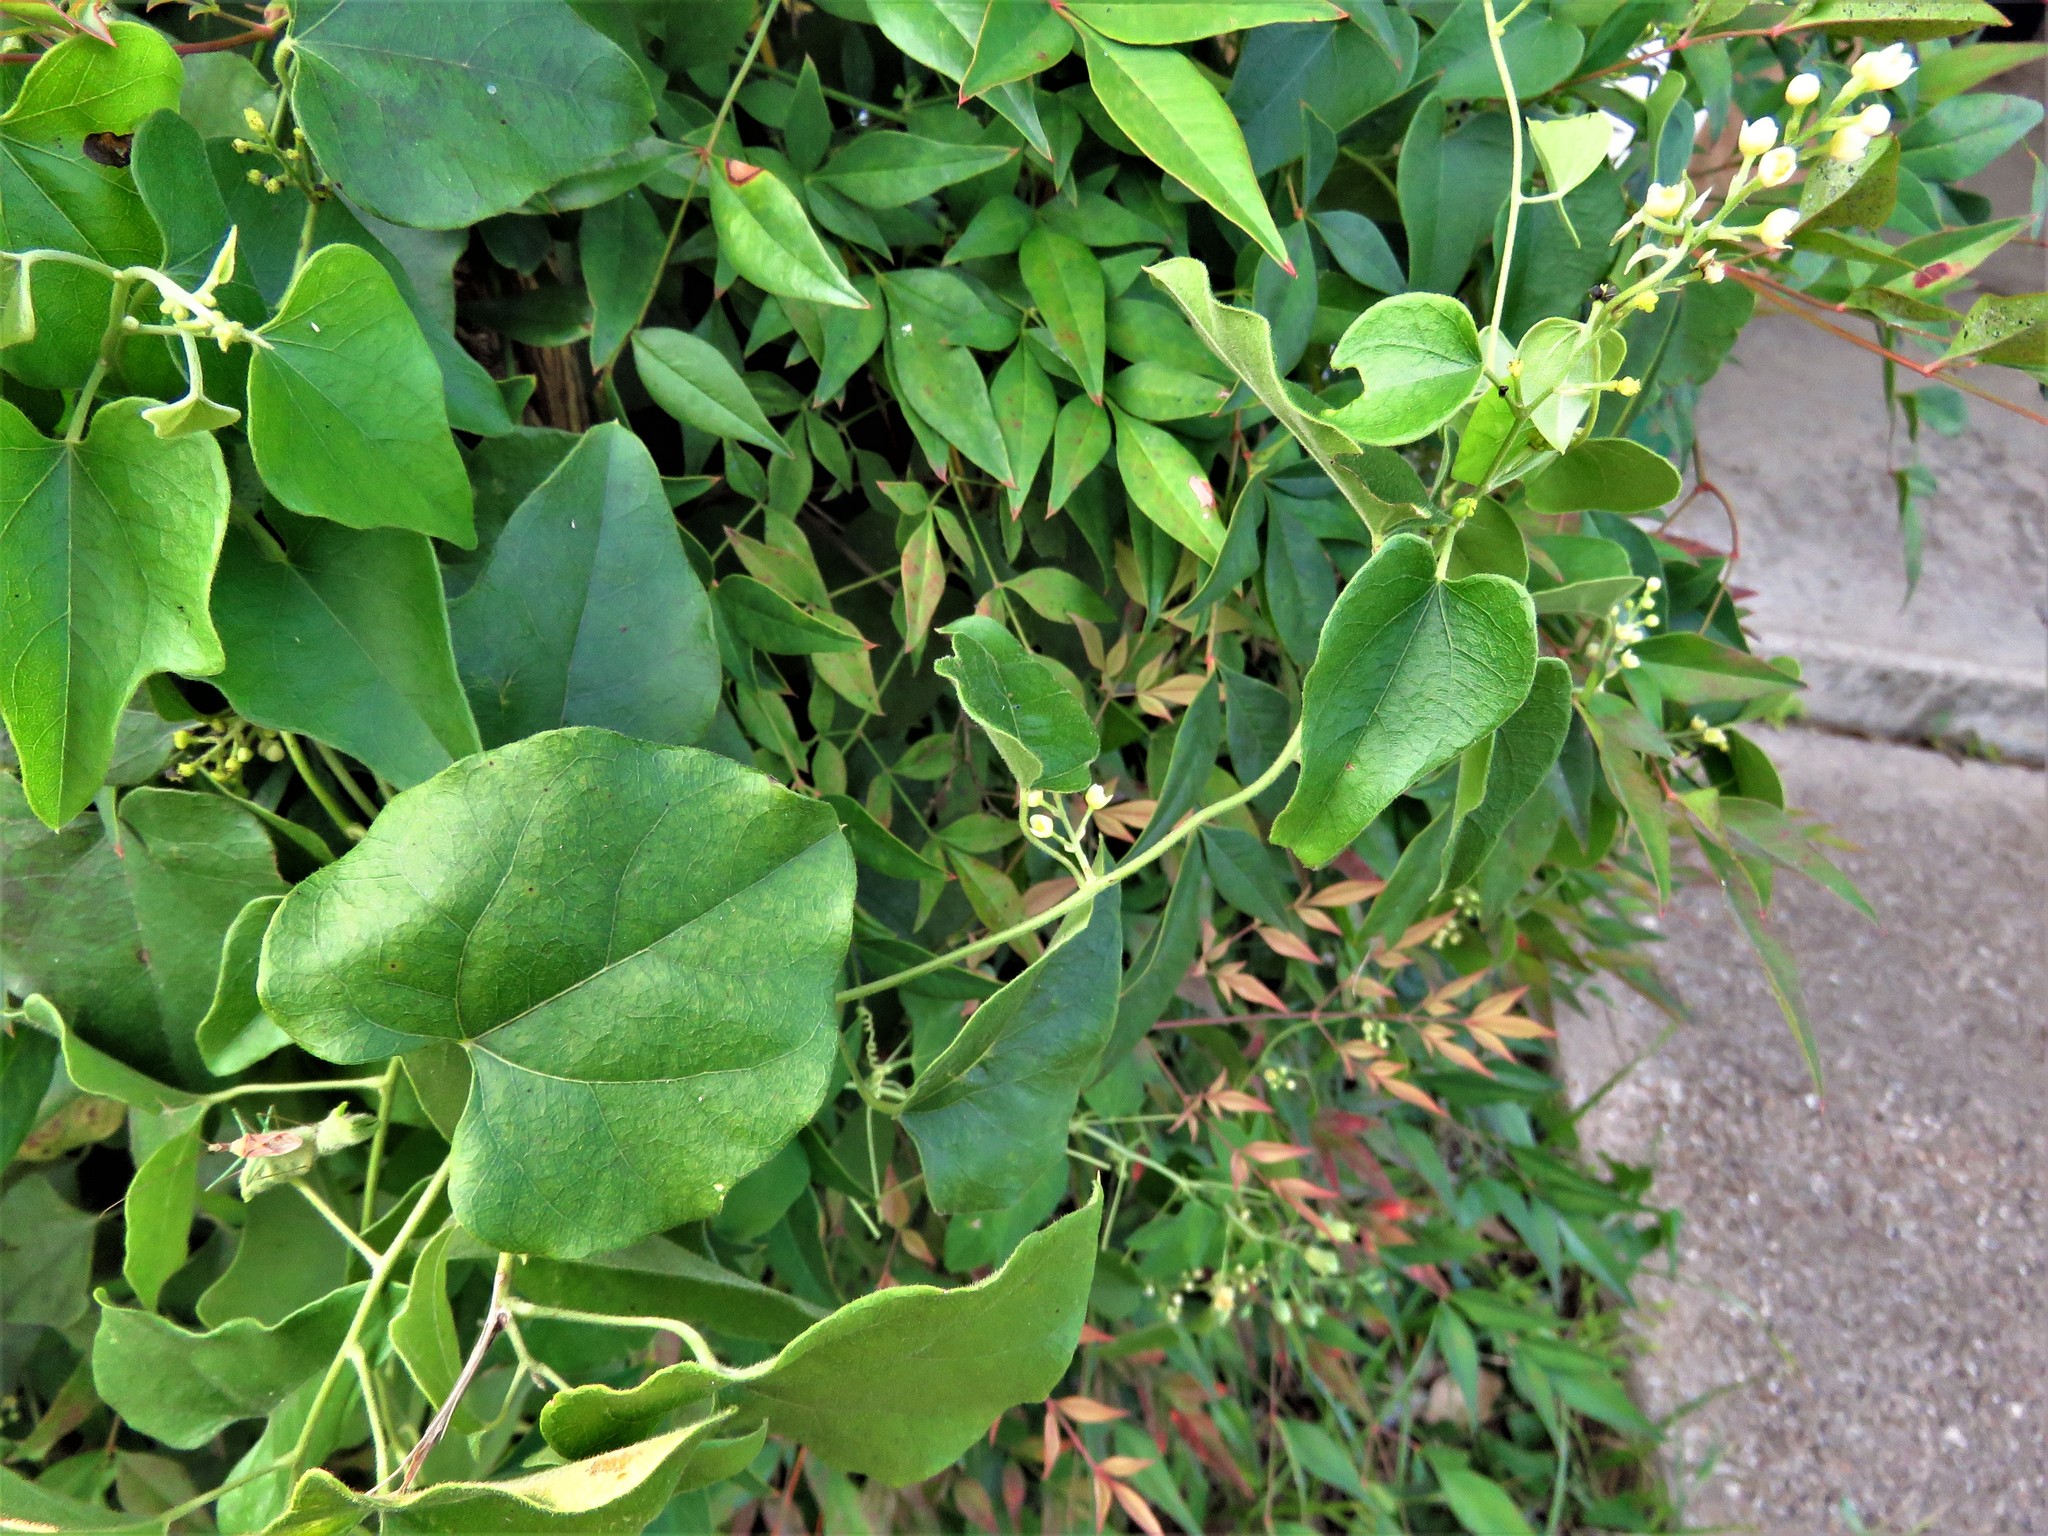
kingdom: Plantae
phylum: Tracheophyta
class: Magnoliopsida
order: Ranunculales
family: Menispermaceae
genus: Cocculus
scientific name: Cocculus carolinus
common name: Carolina moonseed
